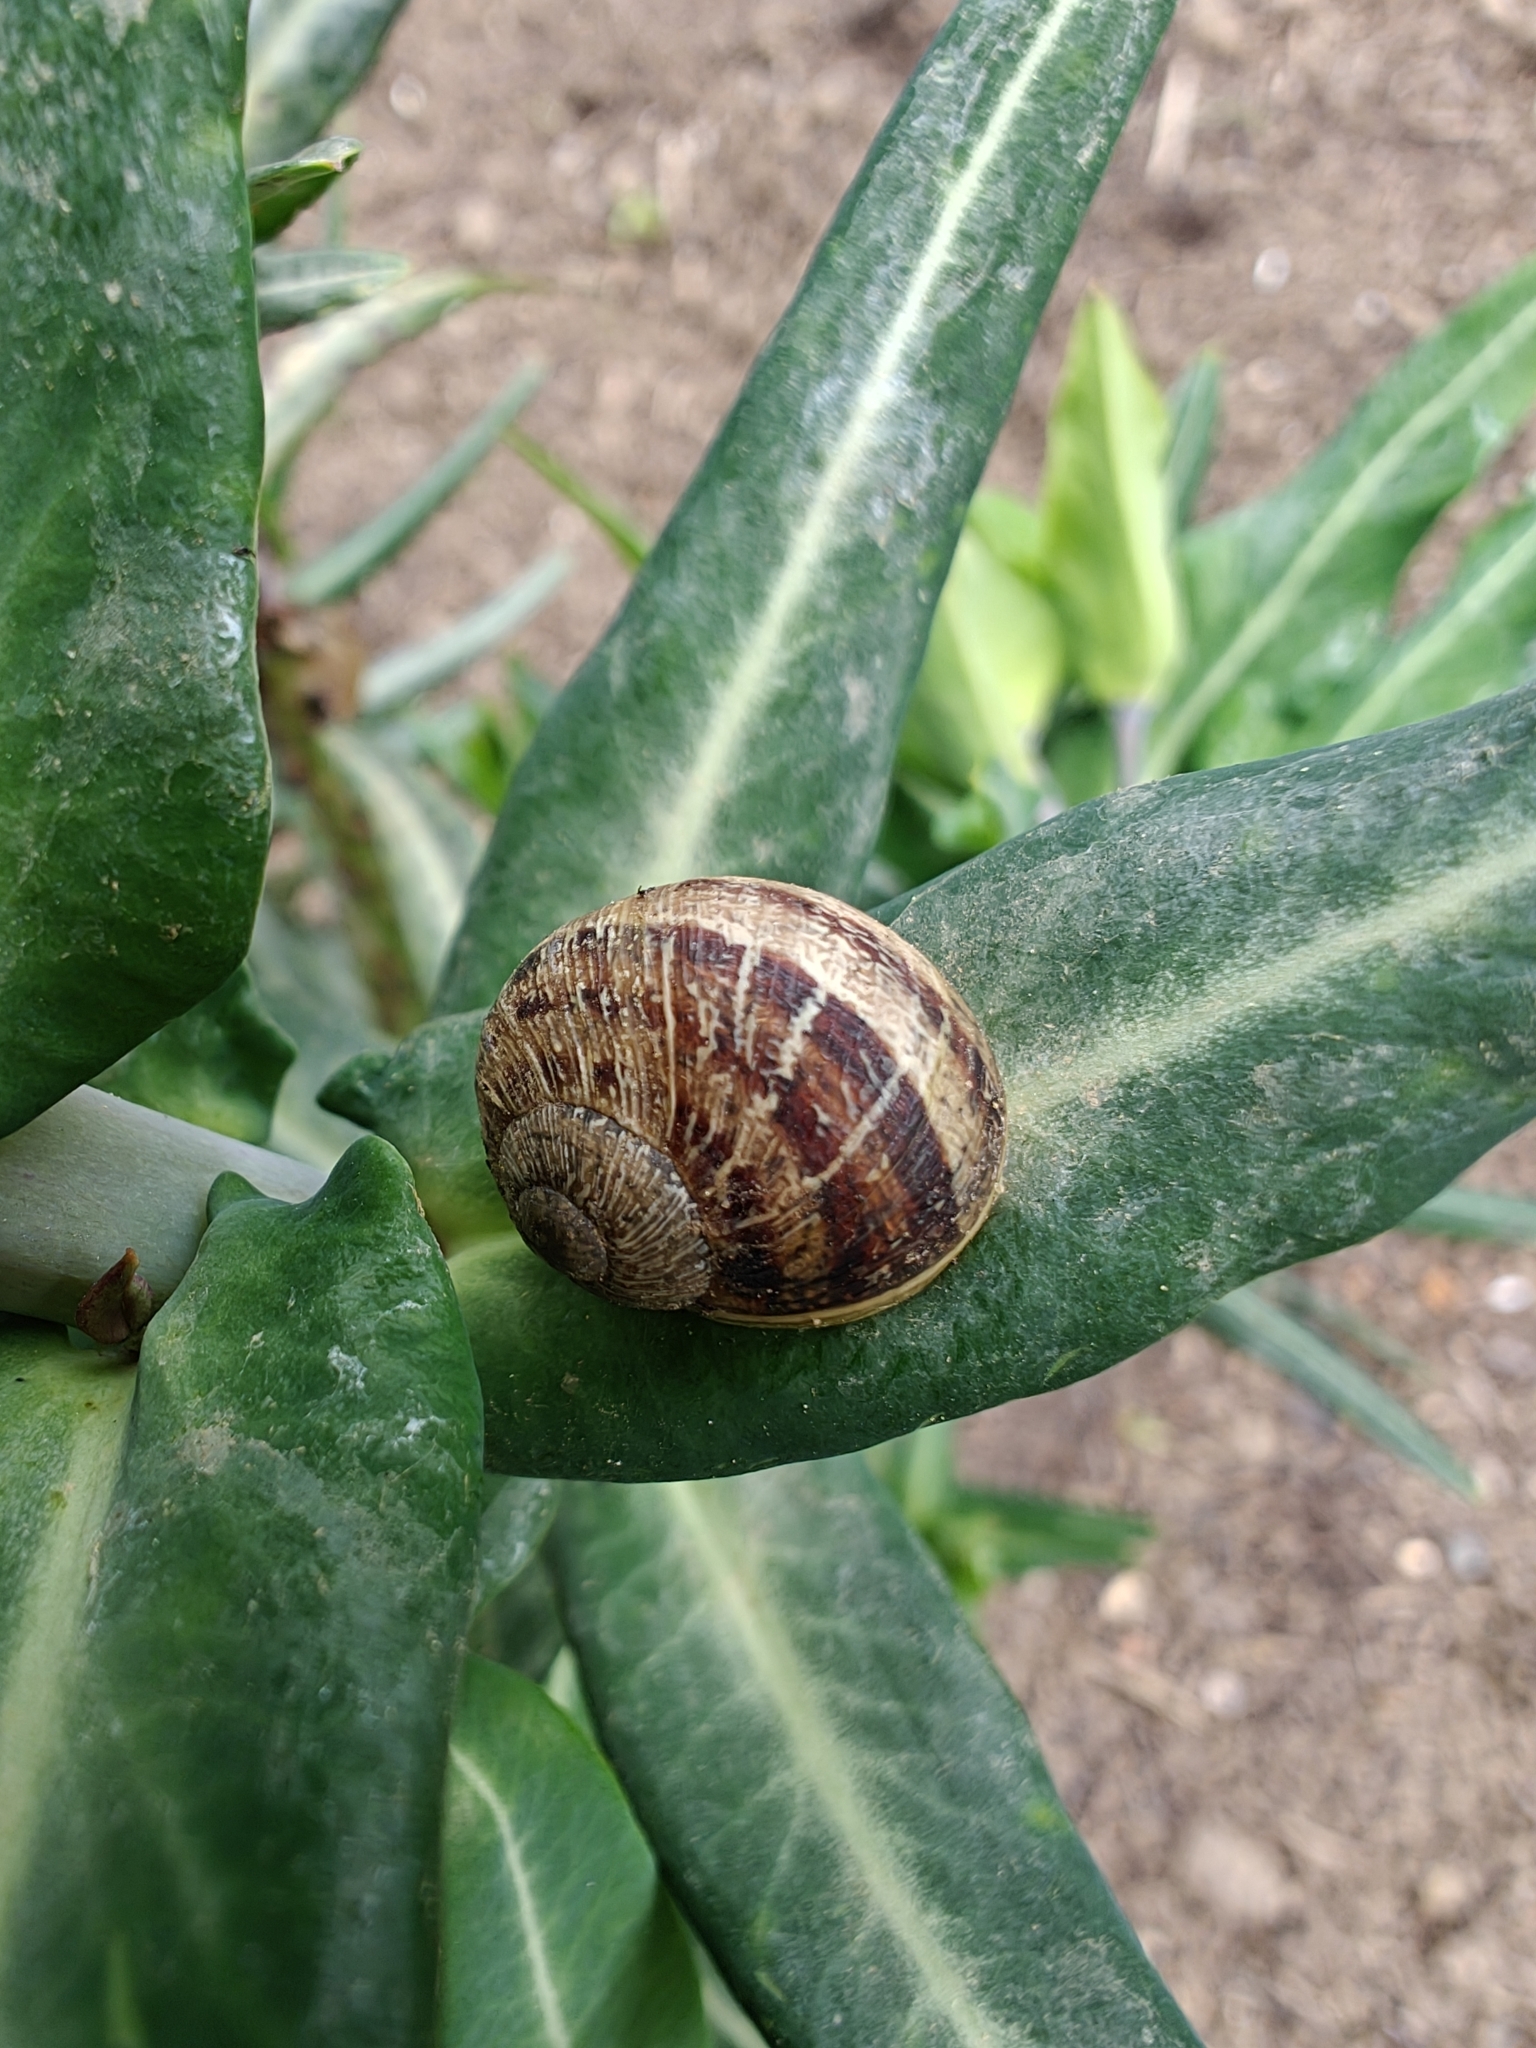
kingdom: Animalia
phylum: Mollusca
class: Gastropoda
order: Stylommatophora
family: Helicidae
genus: Cornu
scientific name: Cornu aspersum
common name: Brown garden snail
